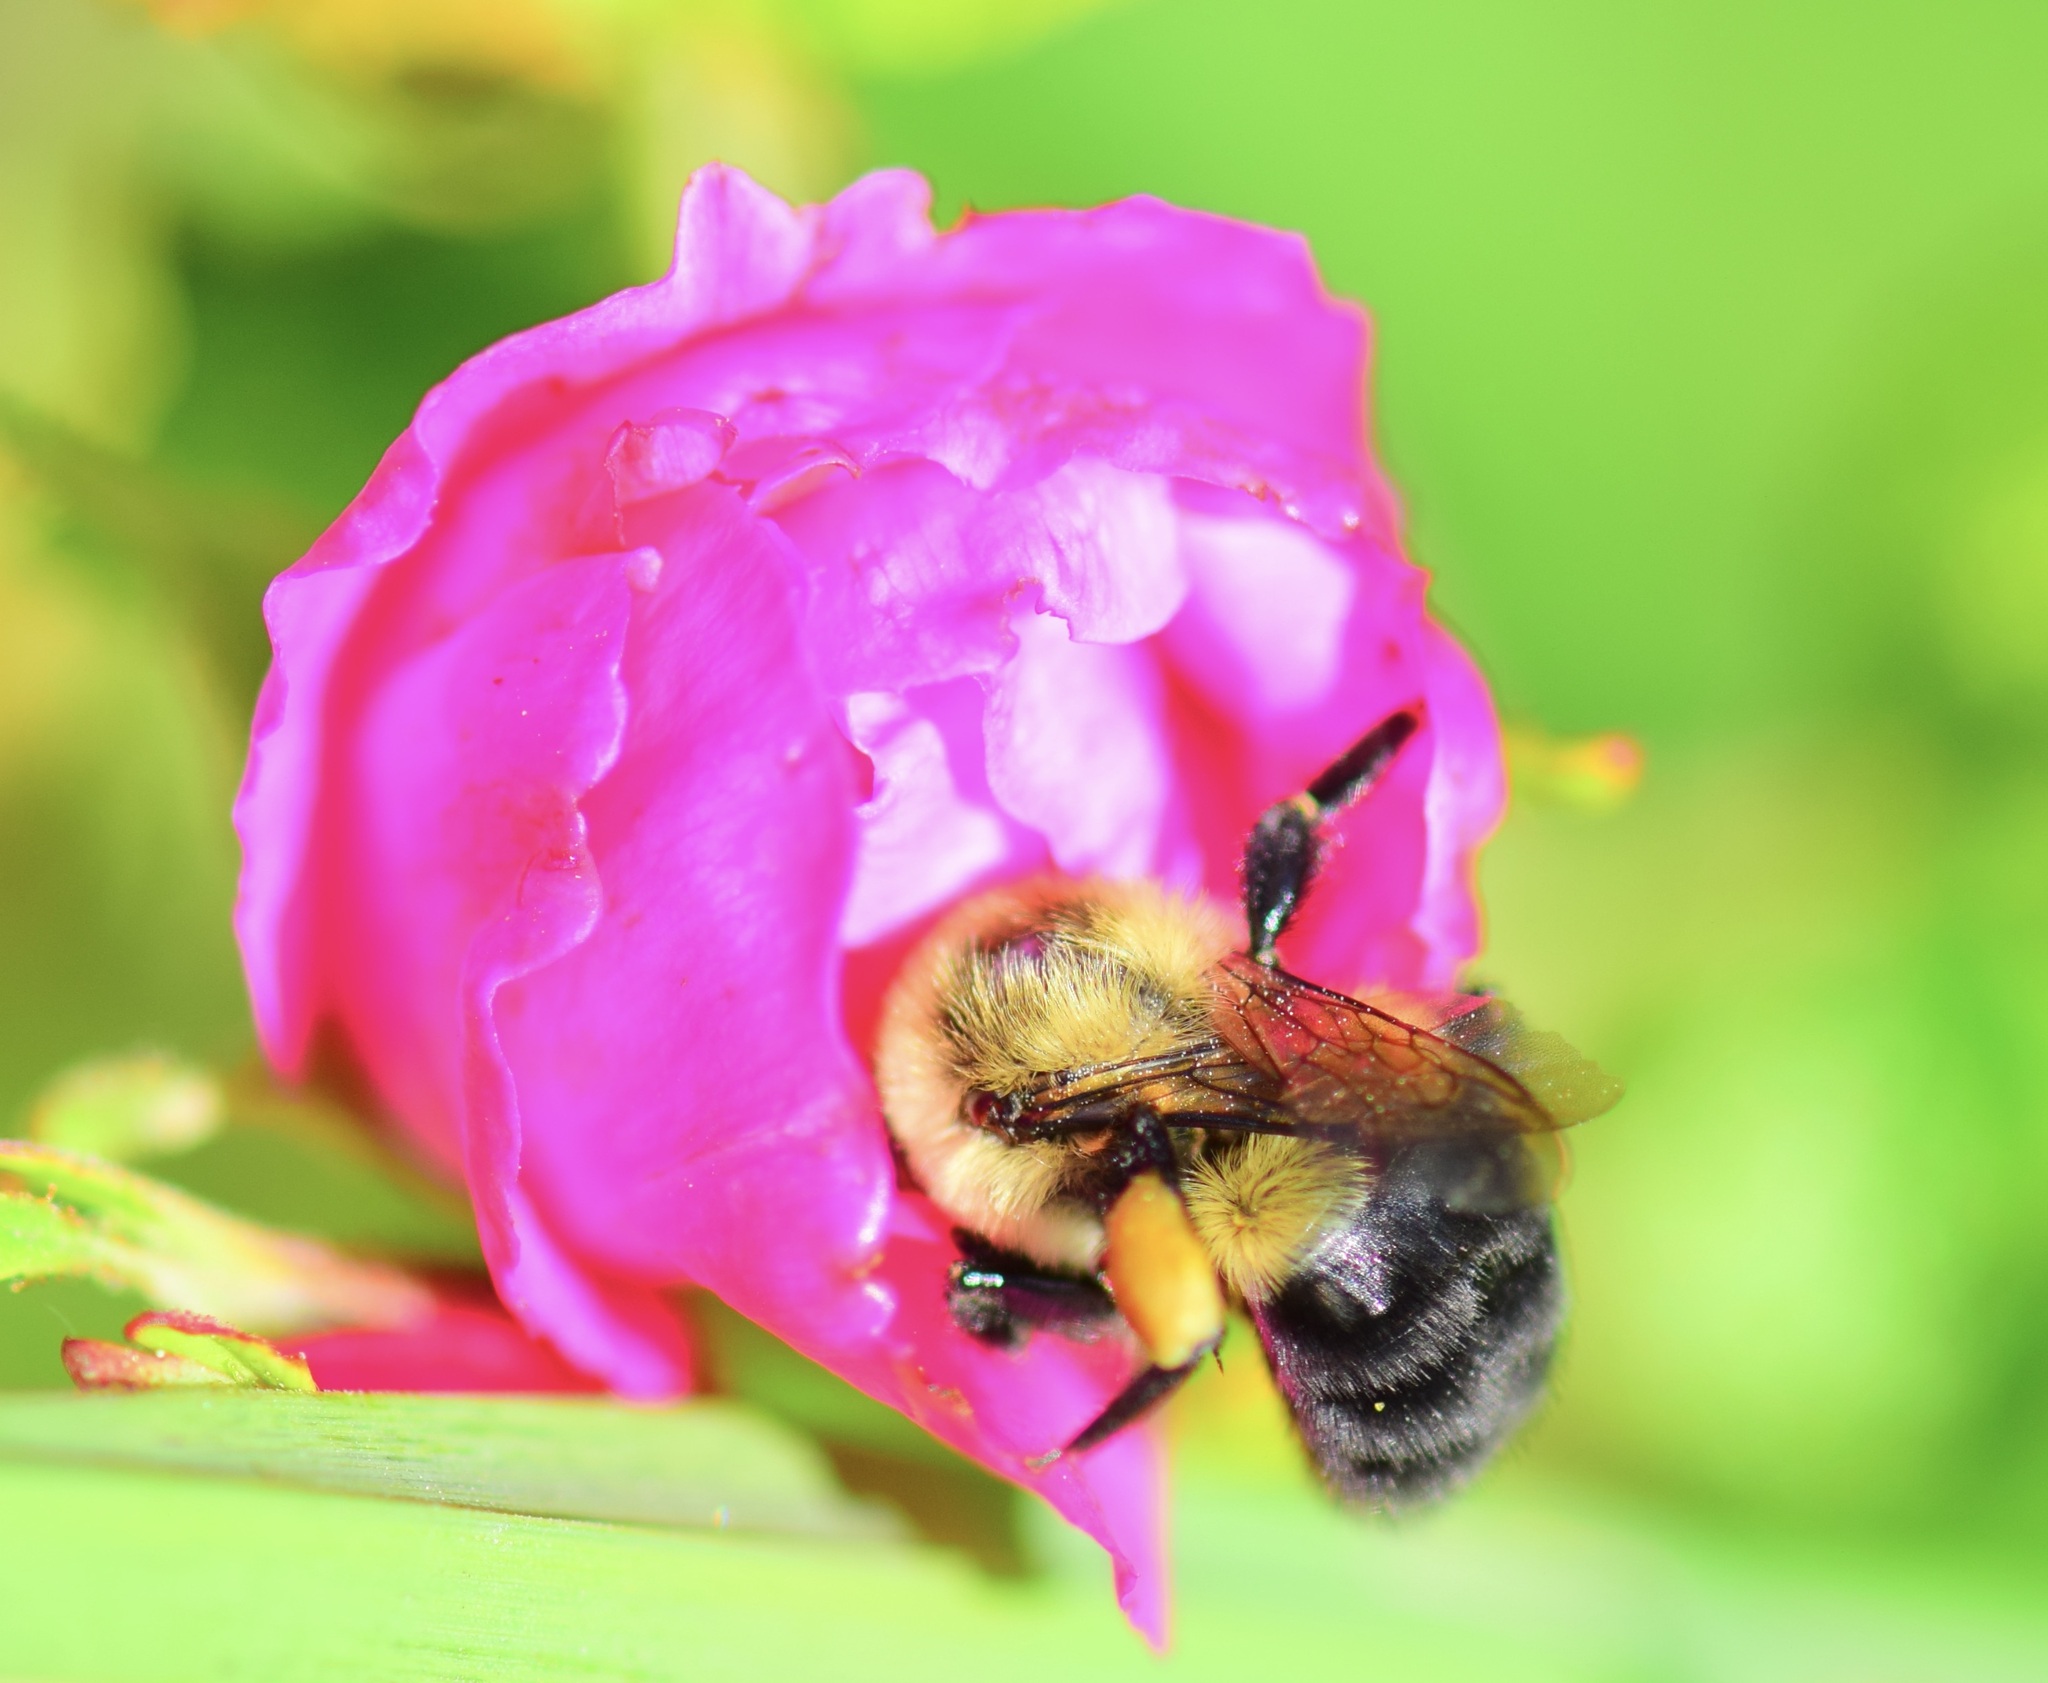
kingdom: Animalia
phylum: Arthropoda
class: Insecta
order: Hymenoptera
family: Apidae
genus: Bombus
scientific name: Bombus impatiens
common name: Common eastern bumble bee
